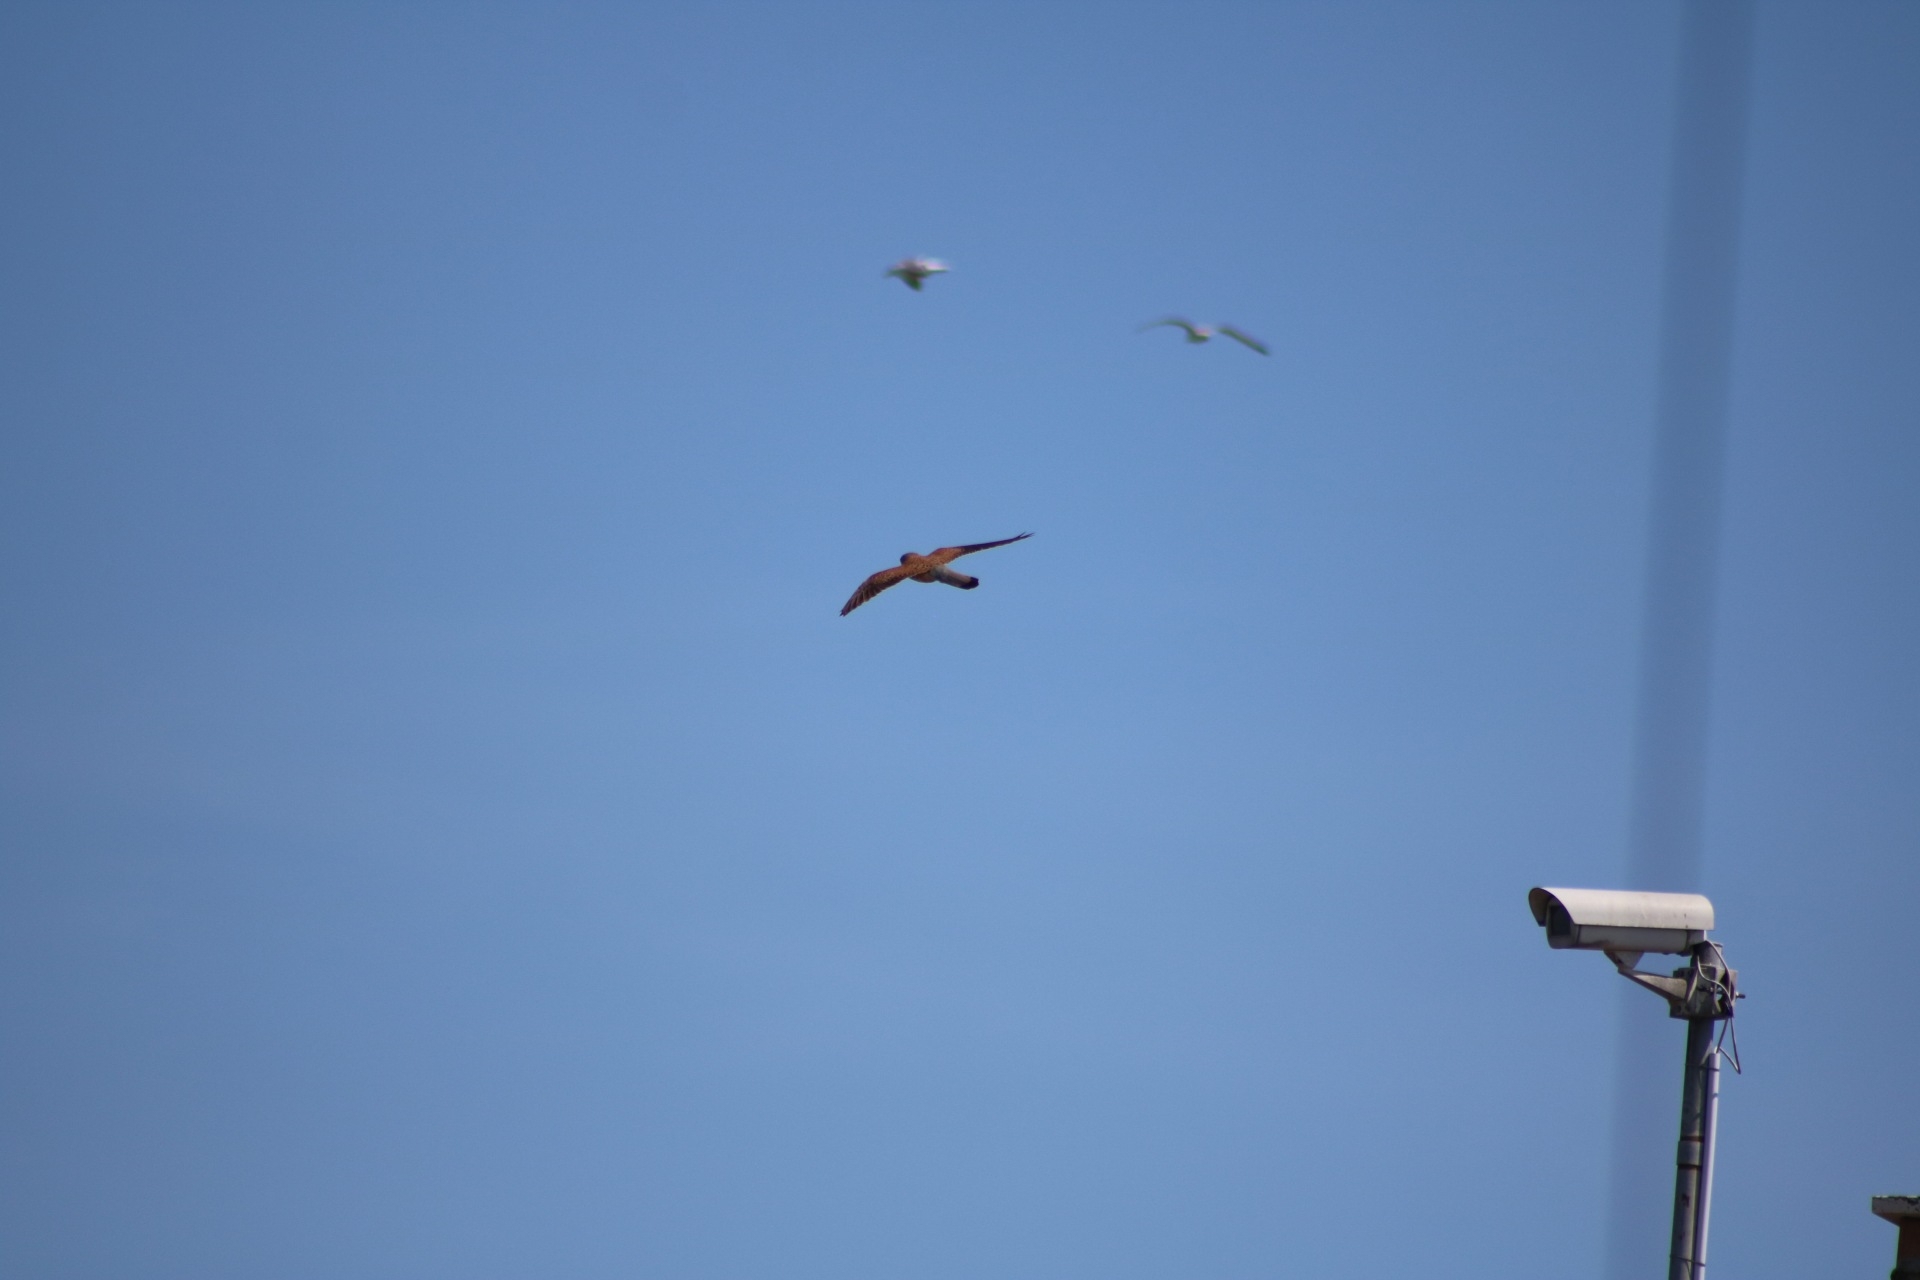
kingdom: Animalia
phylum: Chordata
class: Aves
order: Falconiformes
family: Falconidae
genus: Falco
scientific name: Falco tinnunculus
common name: Common kestrel
